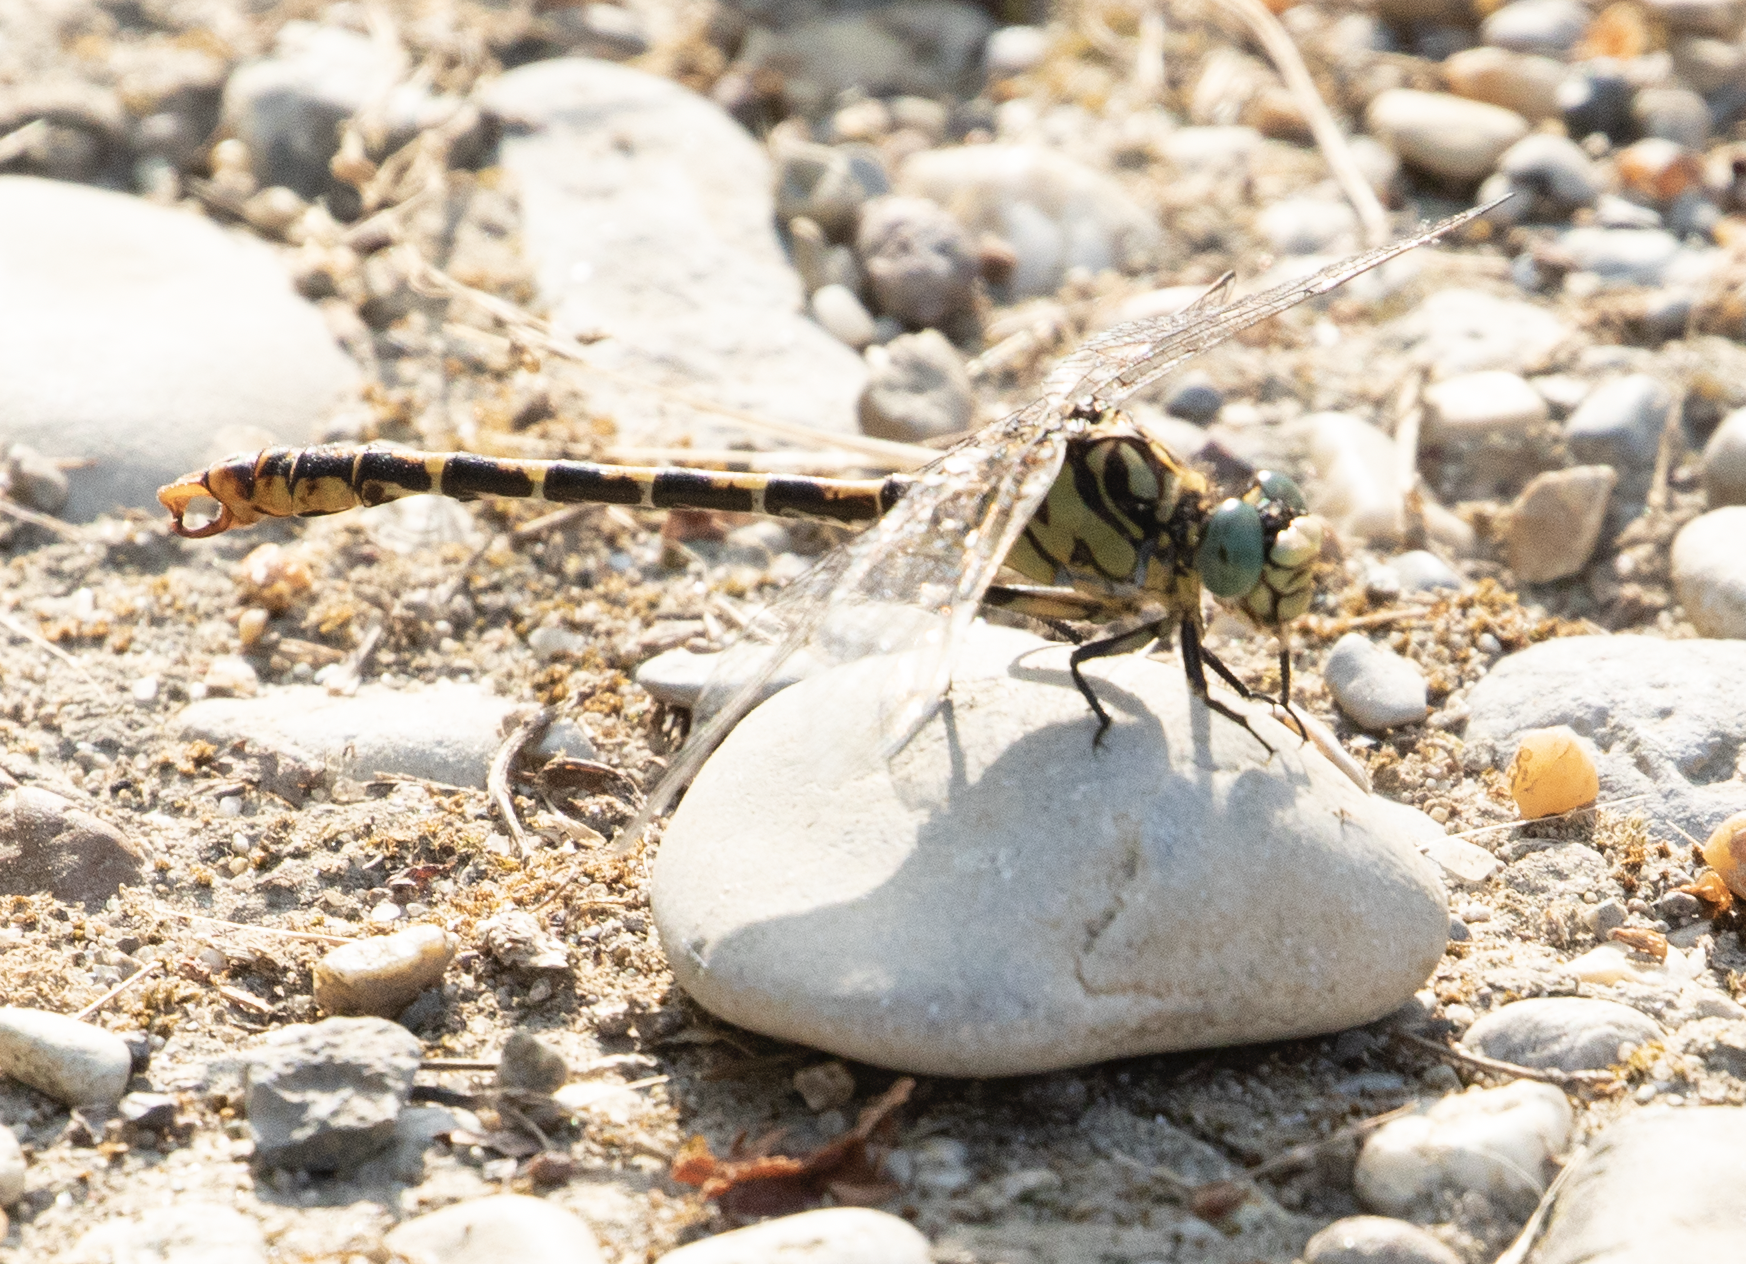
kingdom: Animalia
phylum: Arthropoda
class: Insecta
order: Odonata
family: Gomphidae
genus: Onychogomphus
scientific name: Onychogomphus forcipatus
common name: Small pincertail
